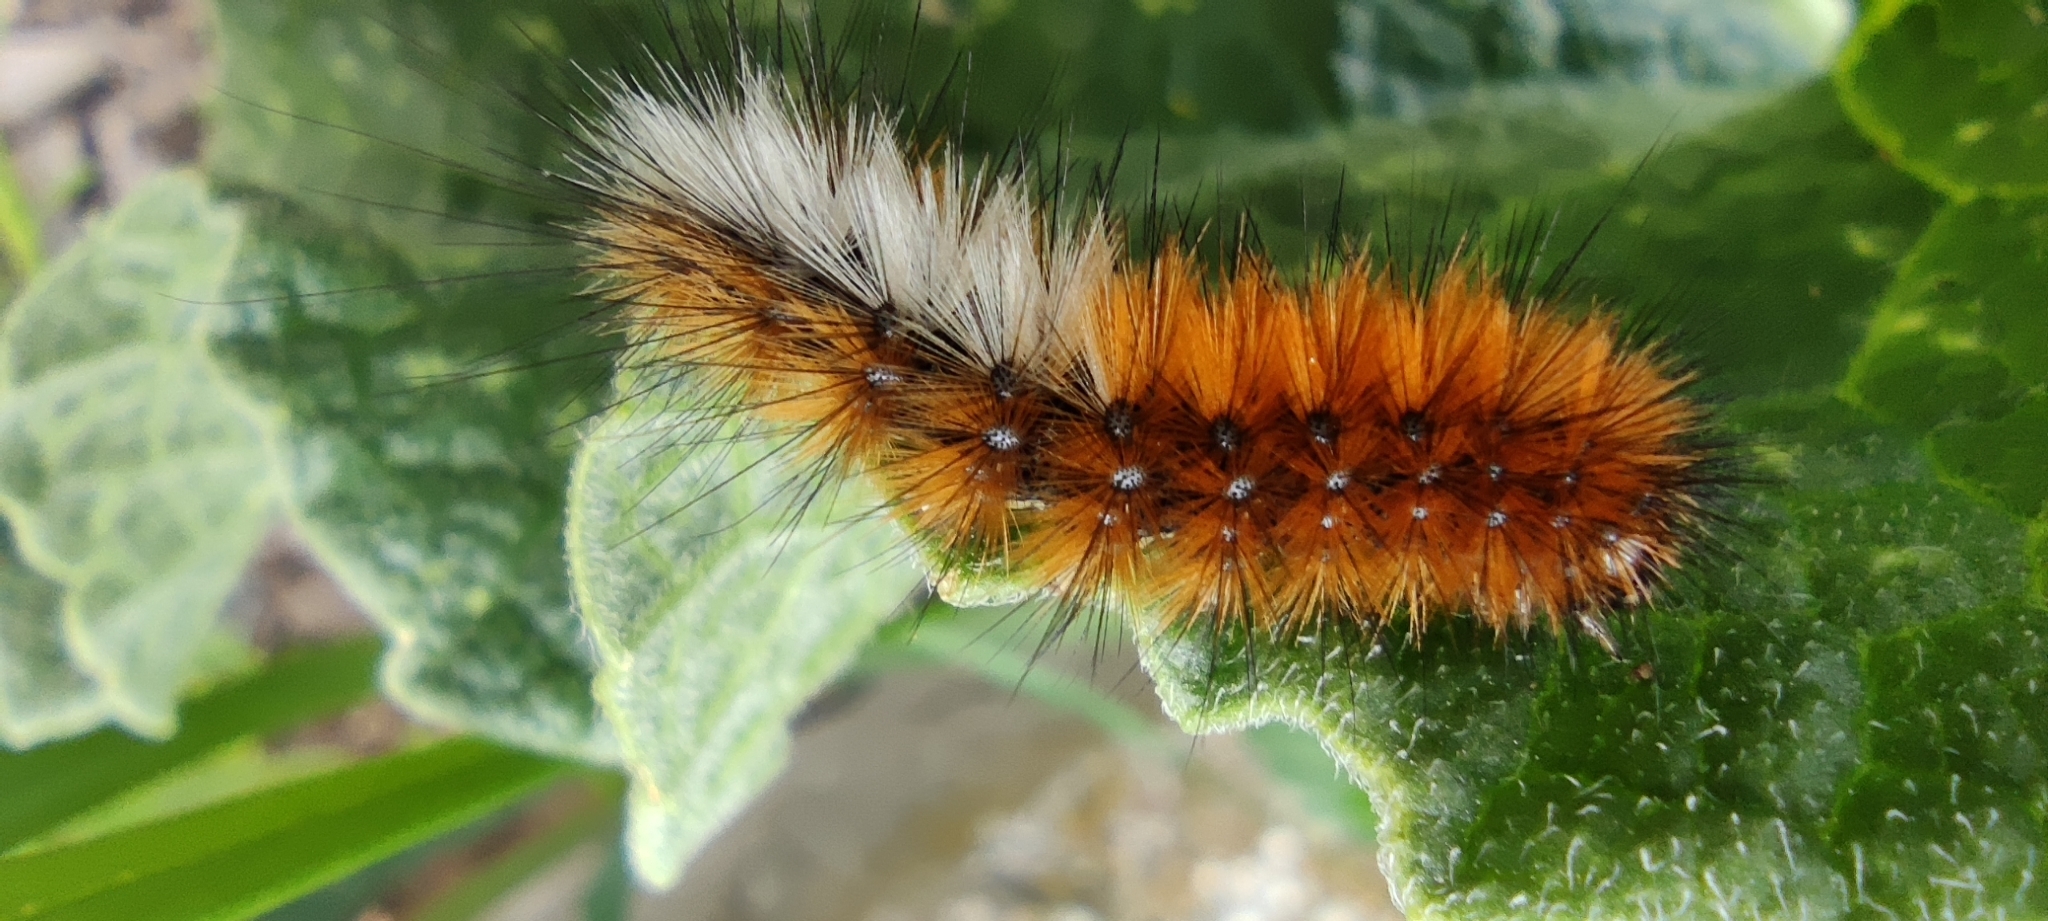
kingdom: Animalia
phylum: Arthropoda
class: Insecta
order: Lepidoptera
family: Erebidae
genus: Ocnogyna
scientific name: Ocnogyna boeticum
